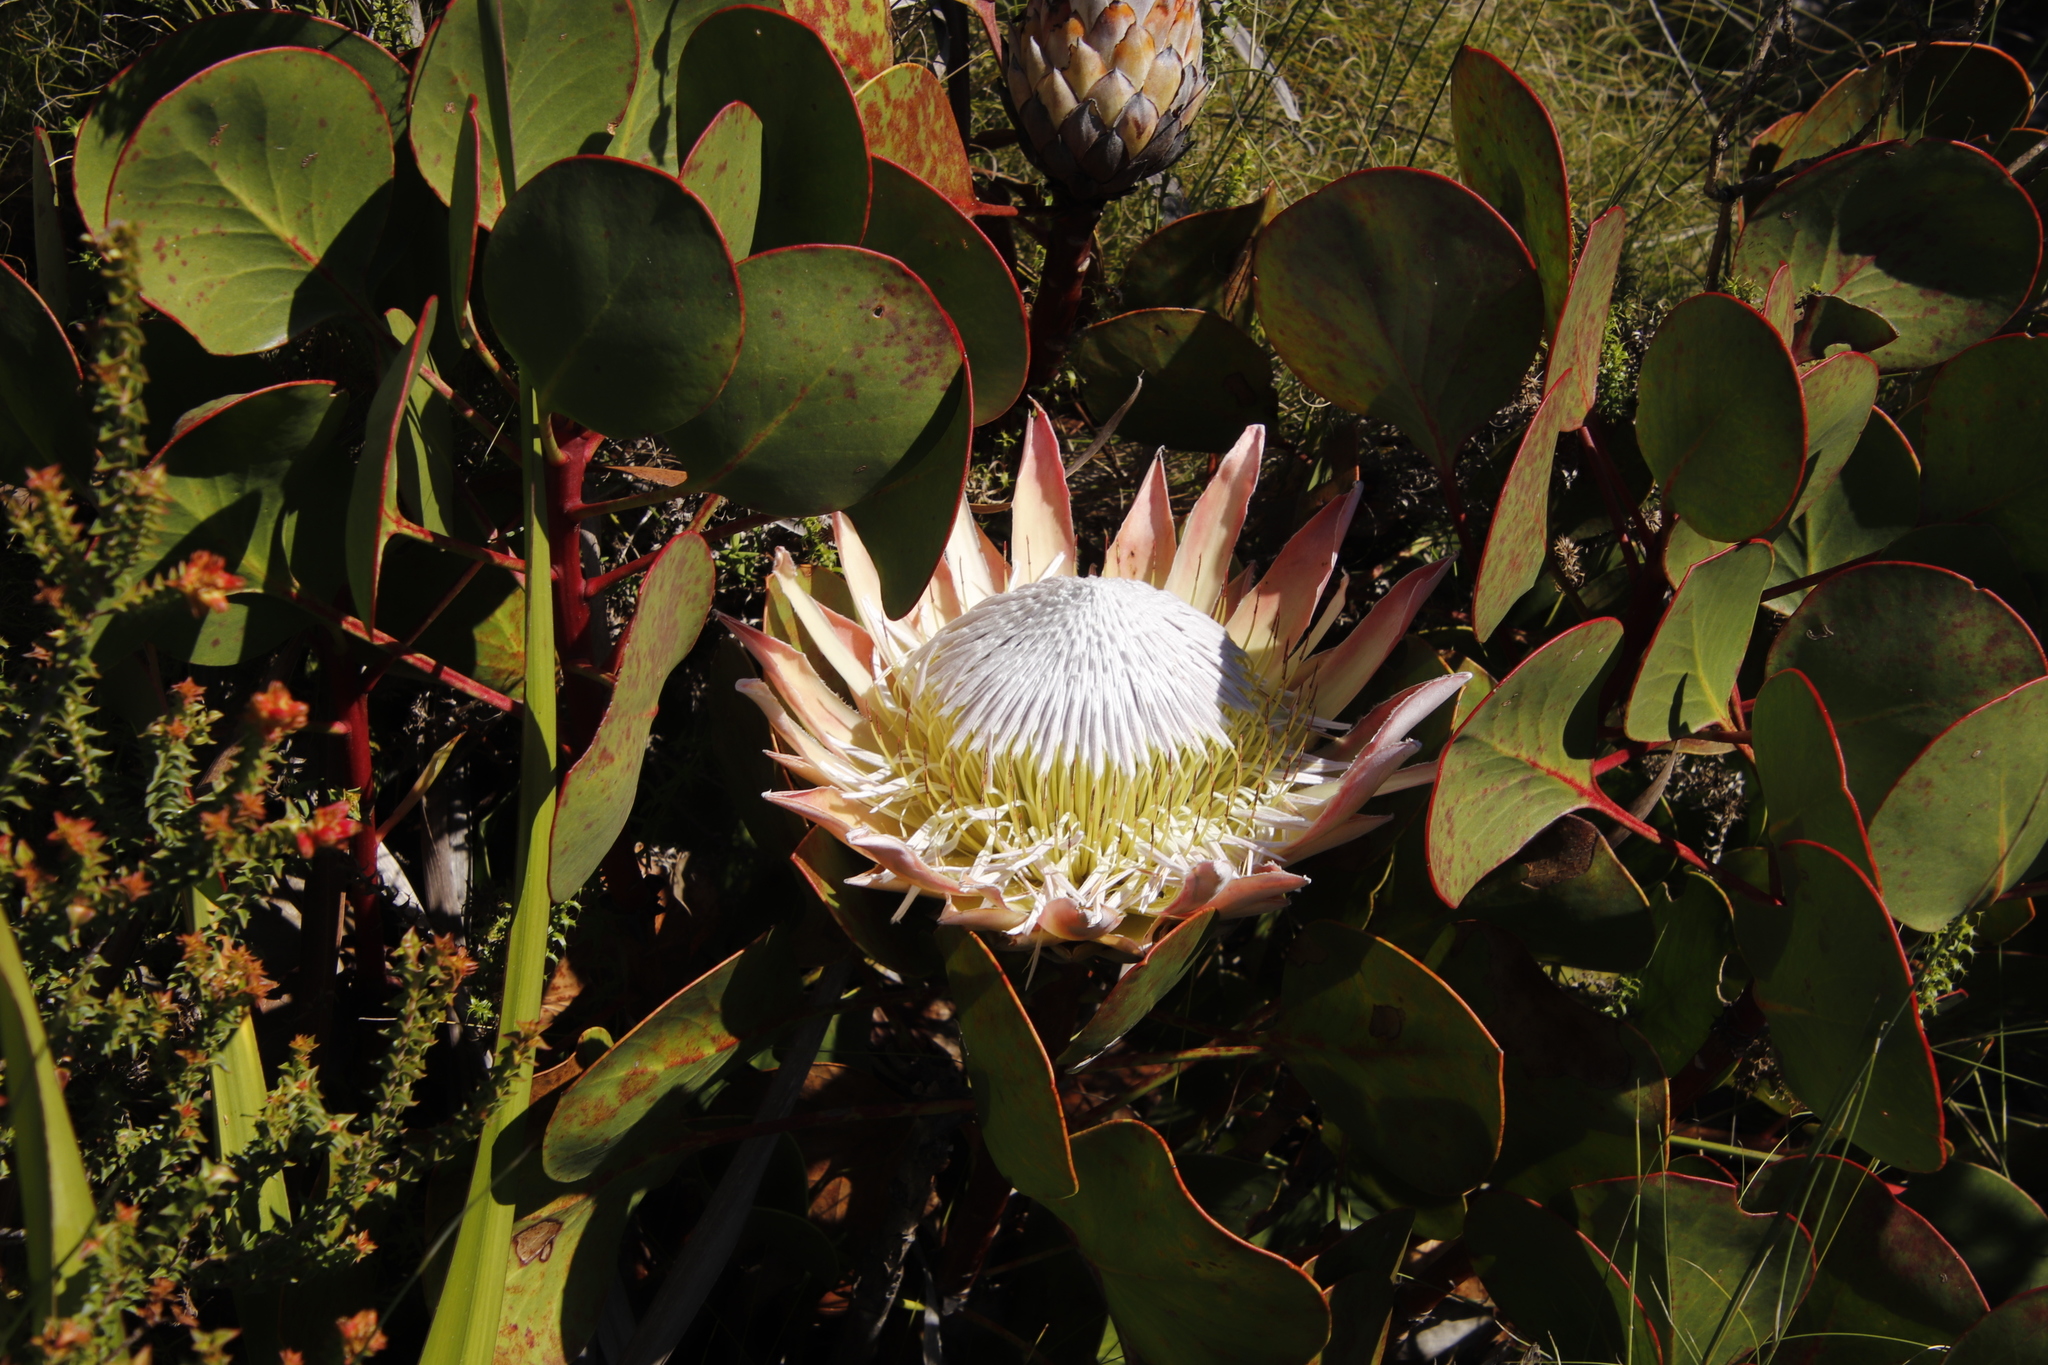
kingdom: Plantae
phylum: Tracheophyta
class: Magnoliopsida
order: Proteales
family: Proteaceae
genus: Protea
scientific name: Protea cynaroides
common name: King protea
